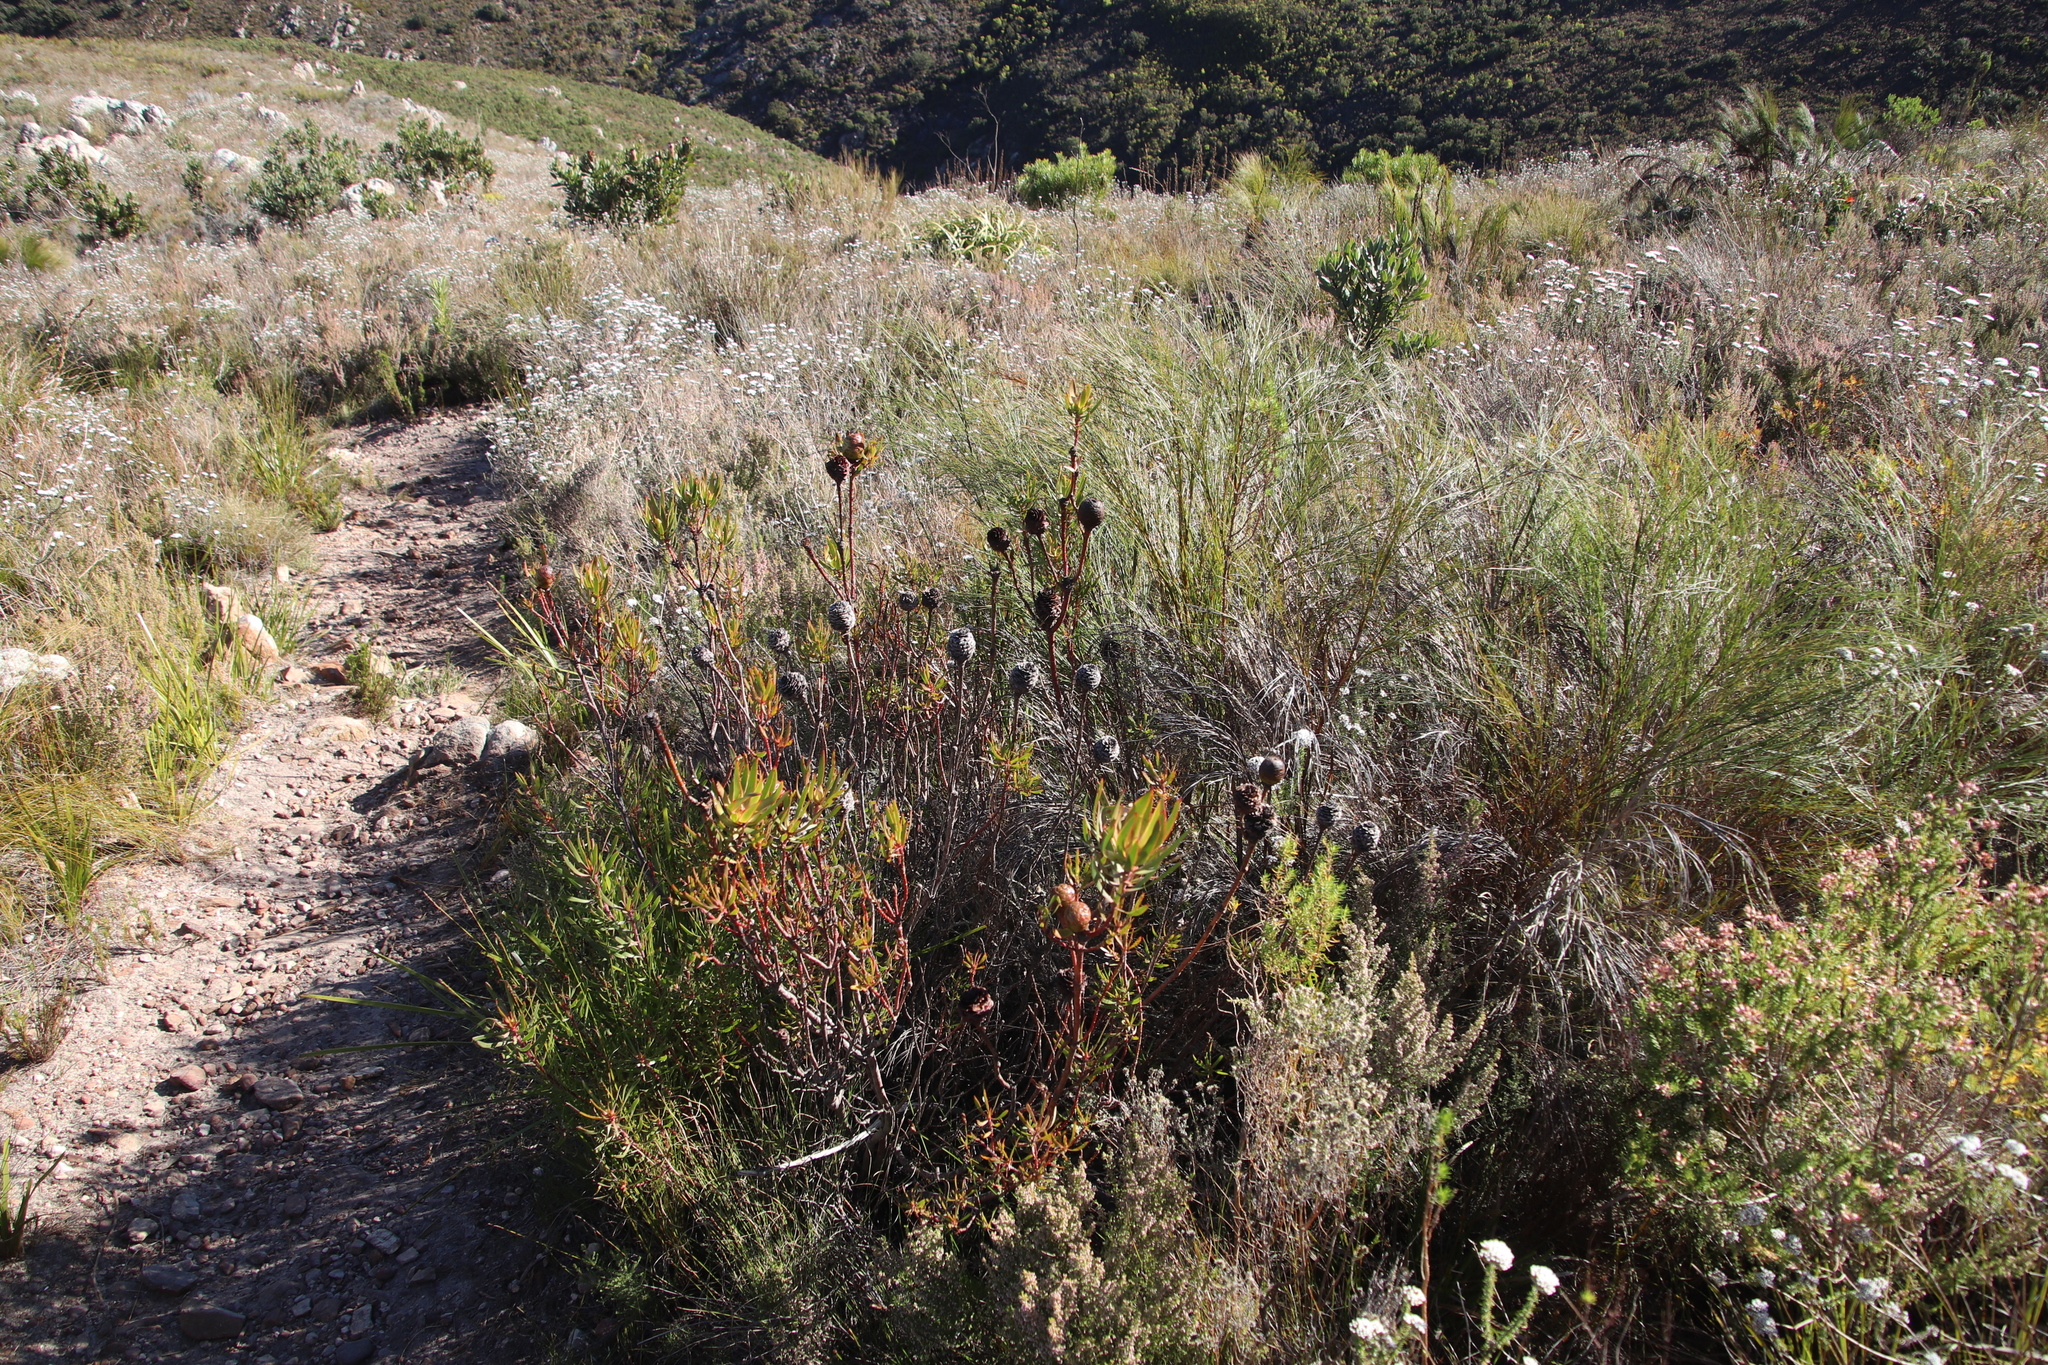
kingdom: Plantae
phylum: Tracheophyta
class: Magnoliopsida
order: Proteales
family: Proteaceae
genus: Leucadendron
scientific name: Leucadendron spissifolium
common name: Spear-leaf conebush
